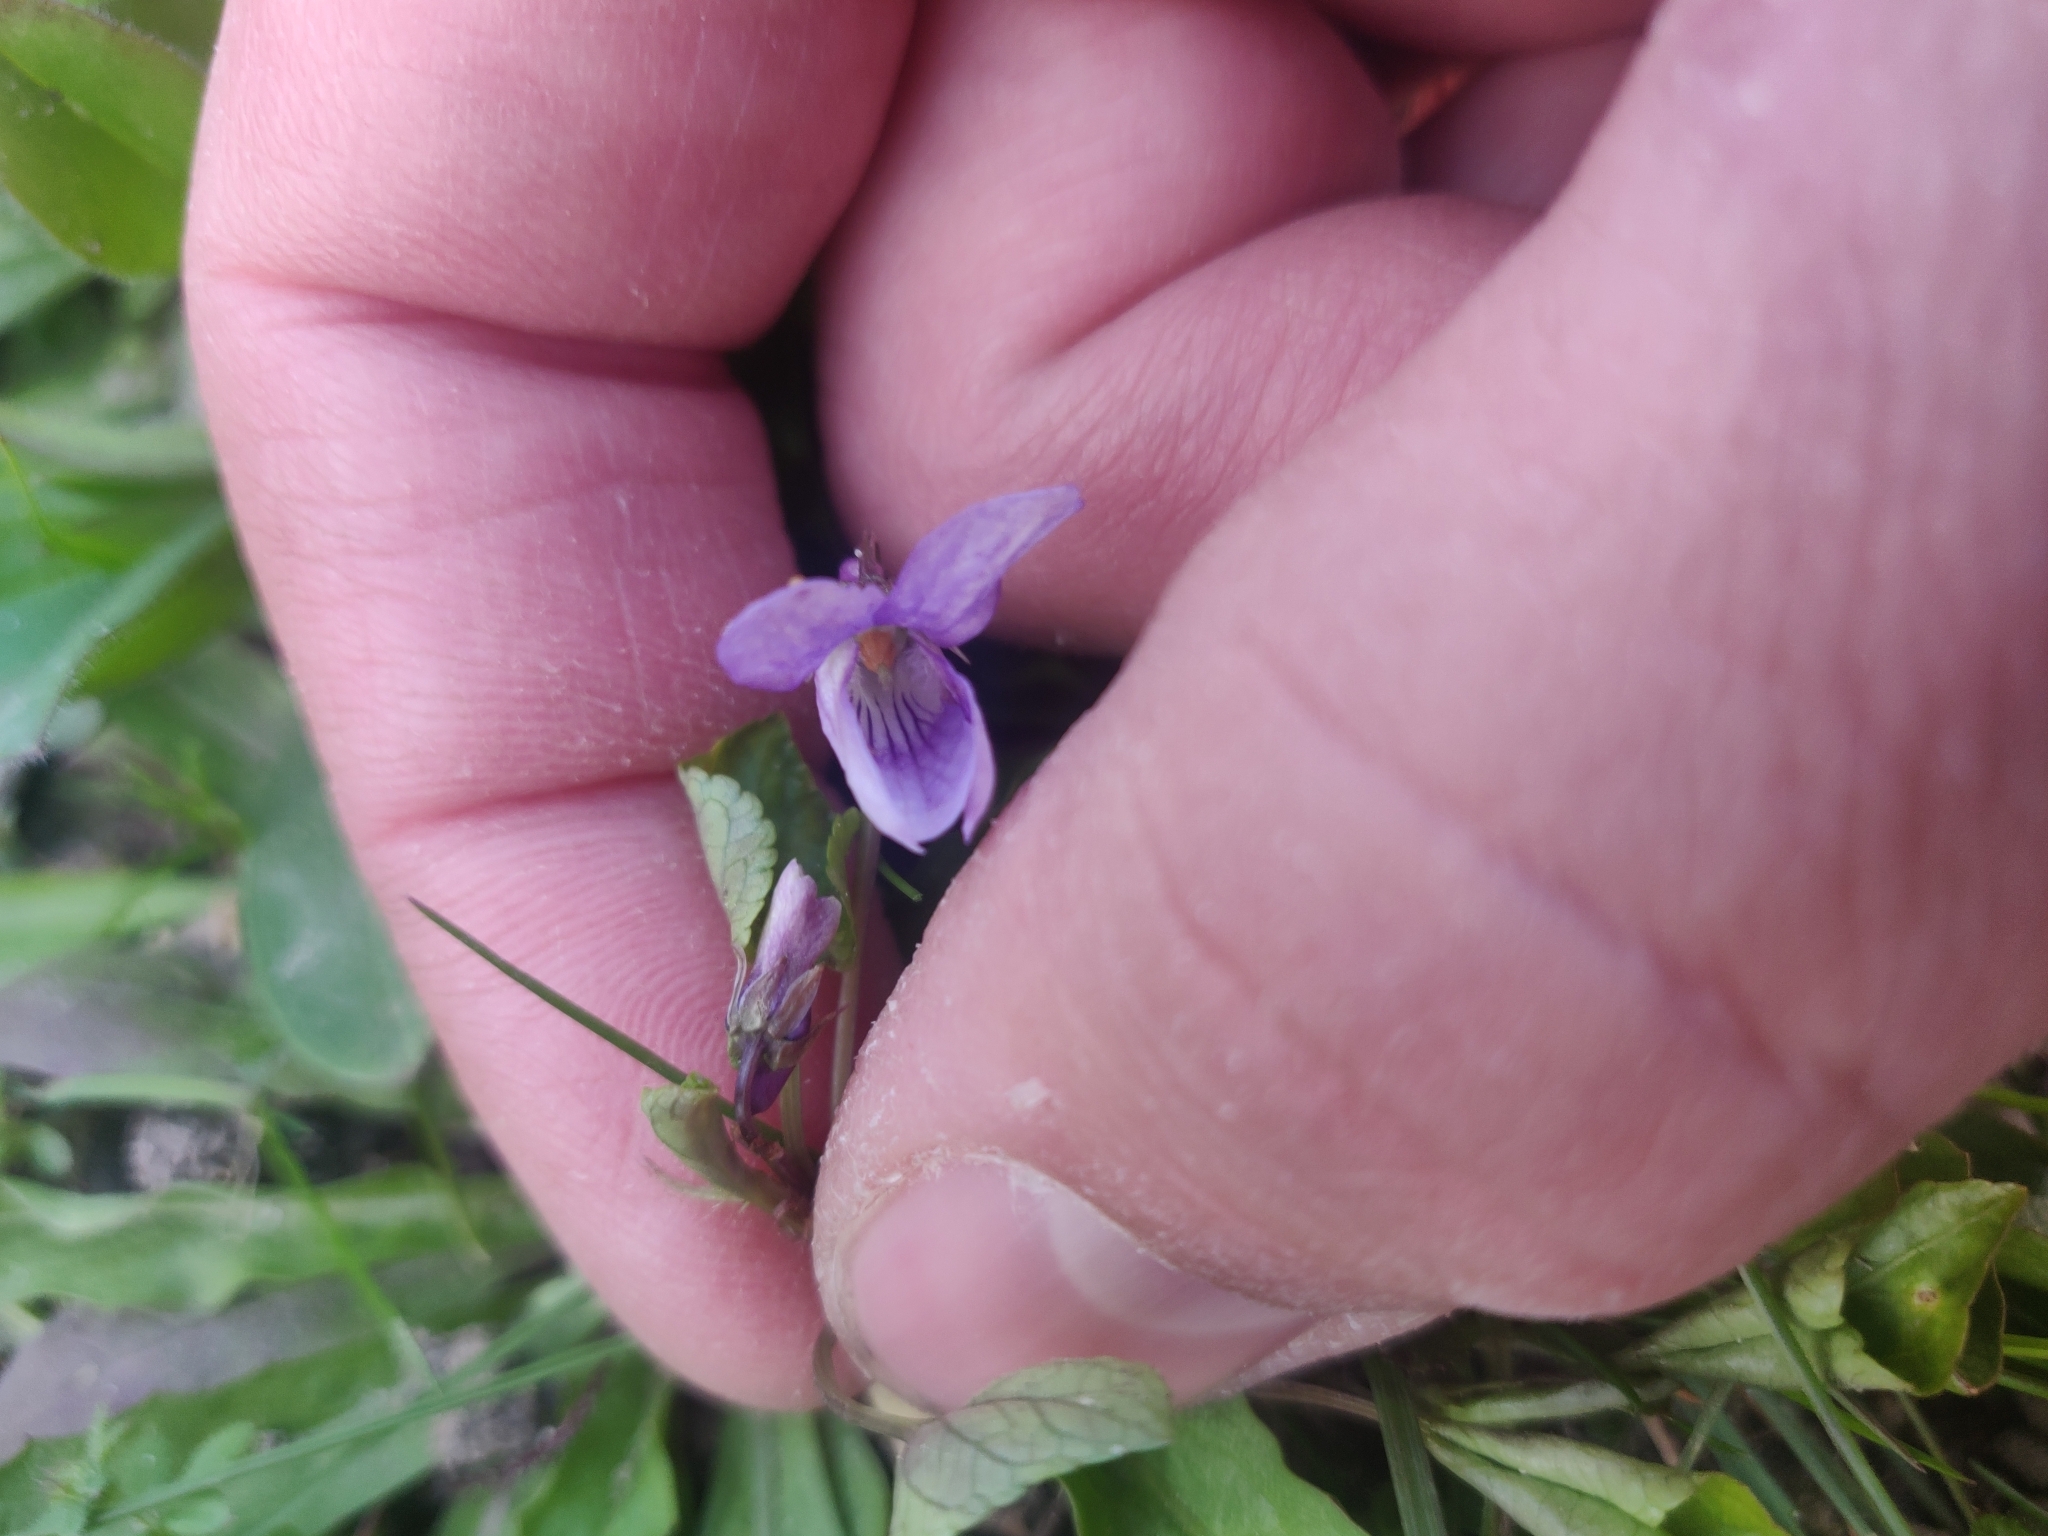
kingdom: Plantae
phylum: Tracheophyta
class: Magnoliopsida
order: Malpighiales
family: Violaceae
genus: Viola
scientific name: Viola reichenbachiana
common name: Early dog-violet
